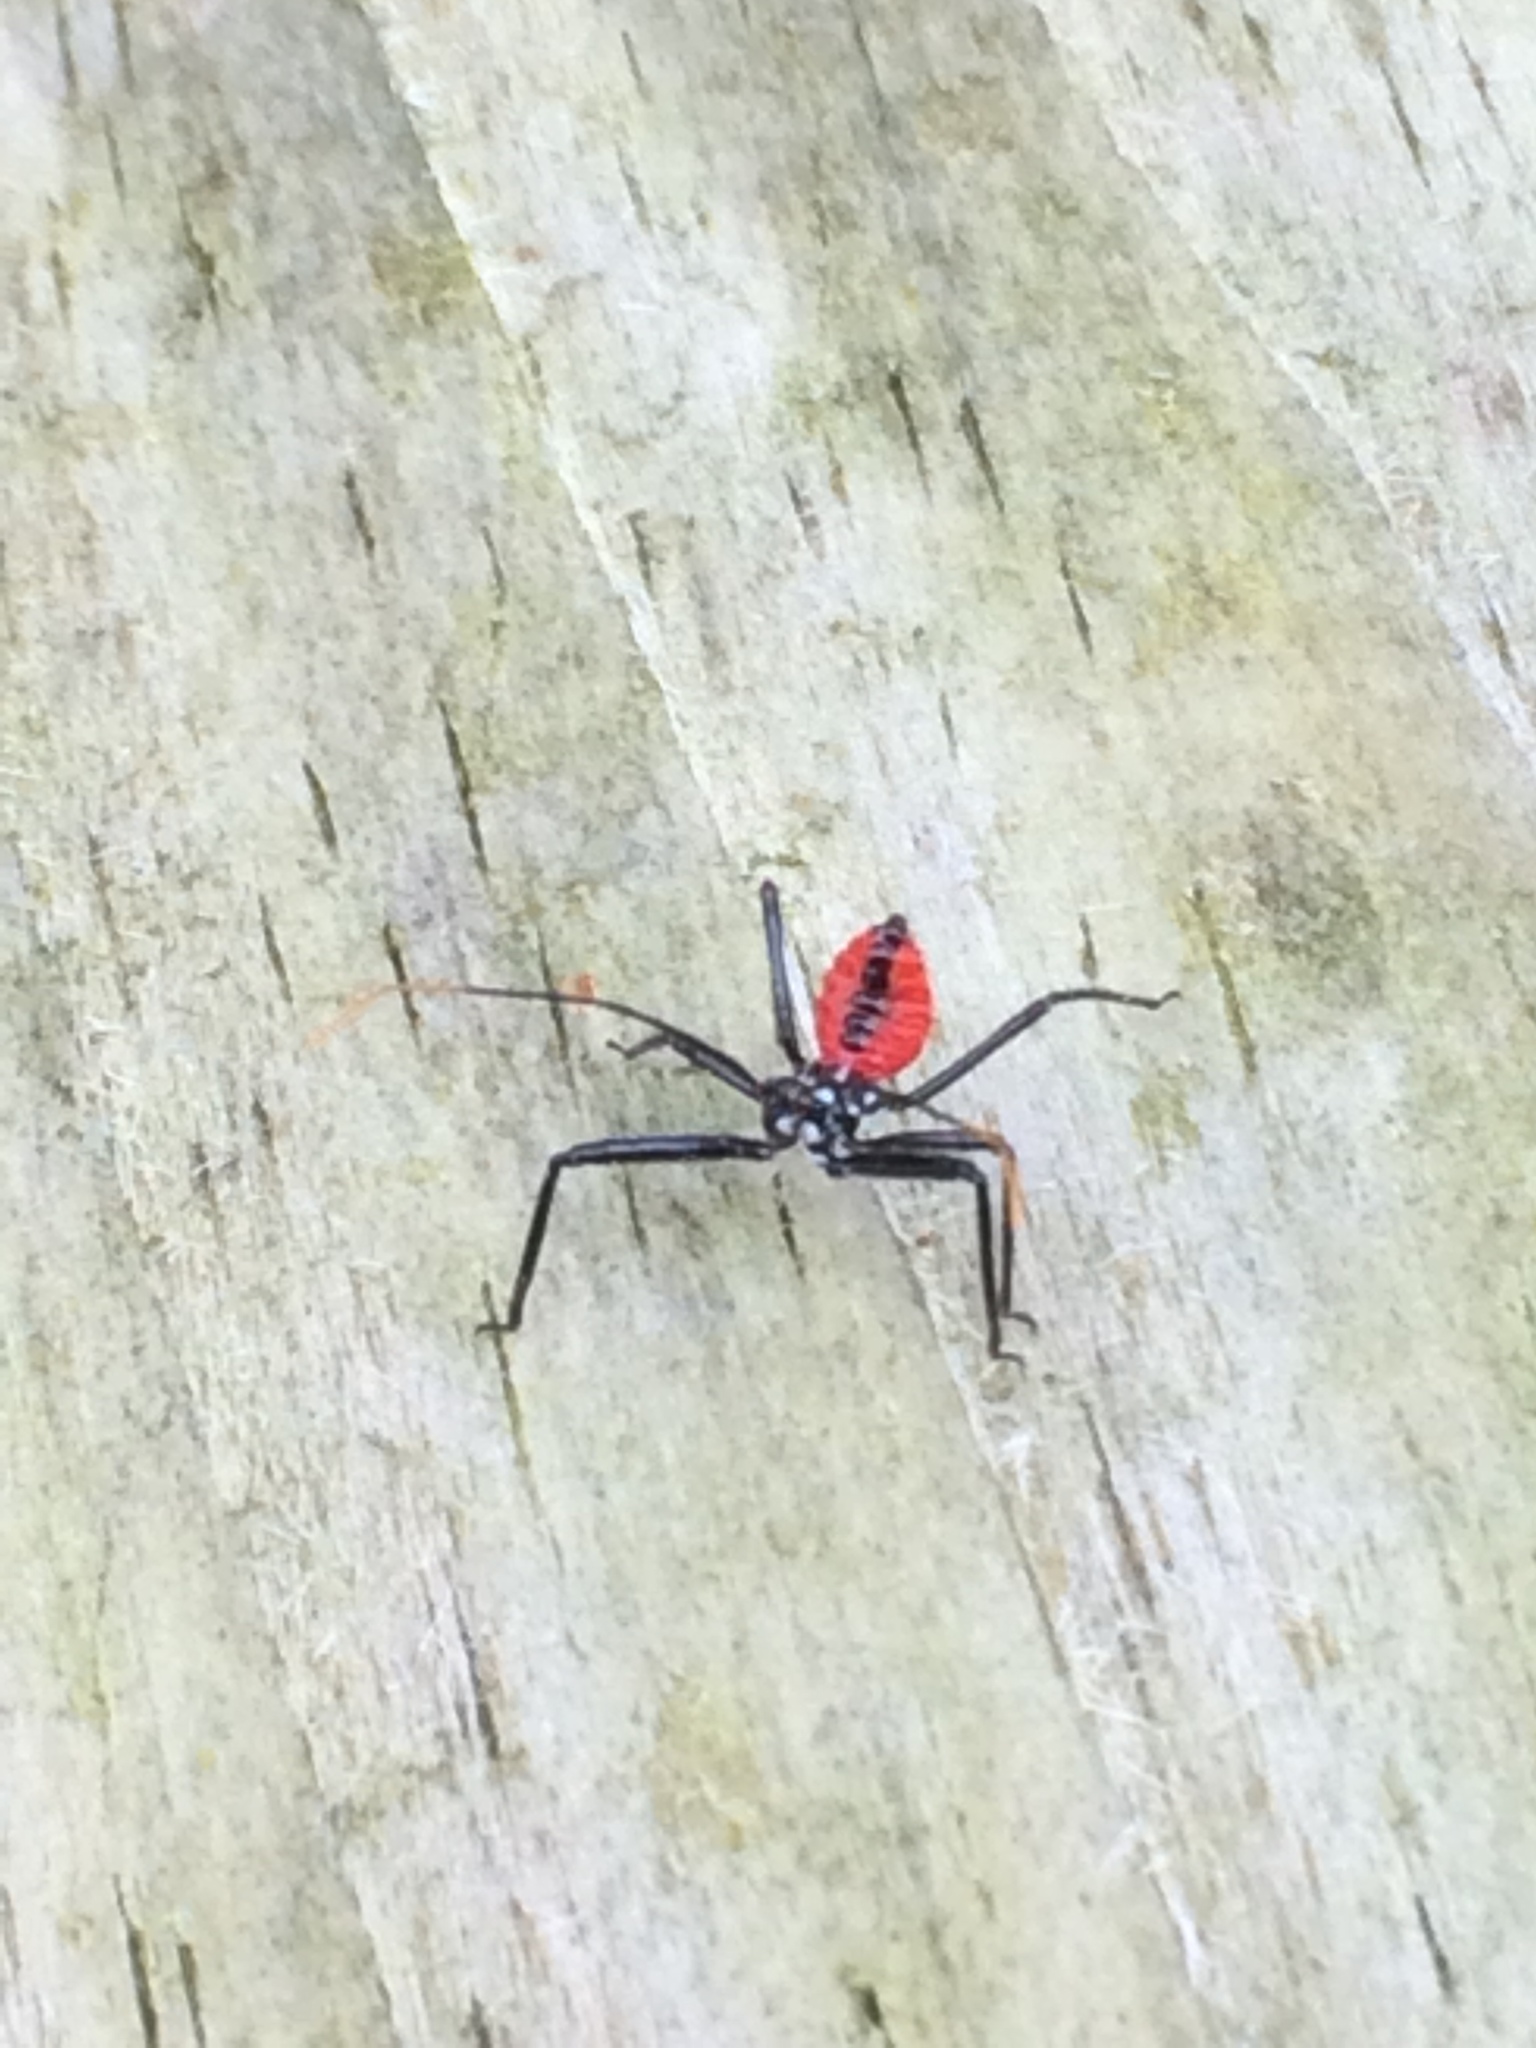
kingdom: Animalia
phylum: Arthropoda
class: Insecta
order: Hemiptera
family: Reduviidae
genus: Arilus
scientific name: Arilus cristatus
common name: North american wheel bug
